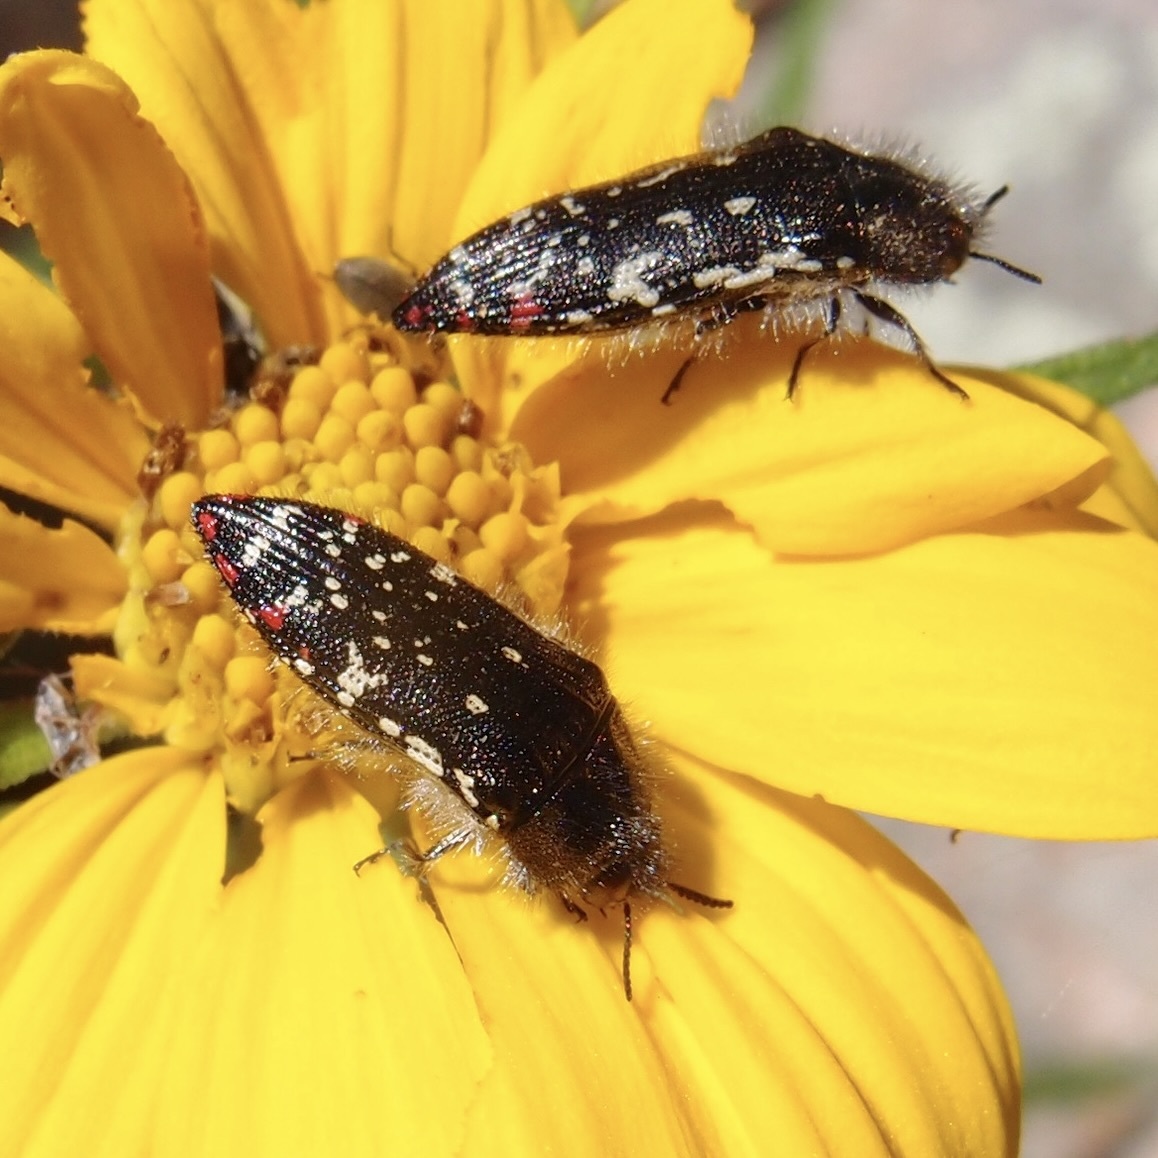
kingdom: Animalia
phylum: Arthropoda
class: Insecta
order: Coleoptera
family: Buprestidae
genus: Acmaeodera
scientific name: Acmaeodera rubronotata
